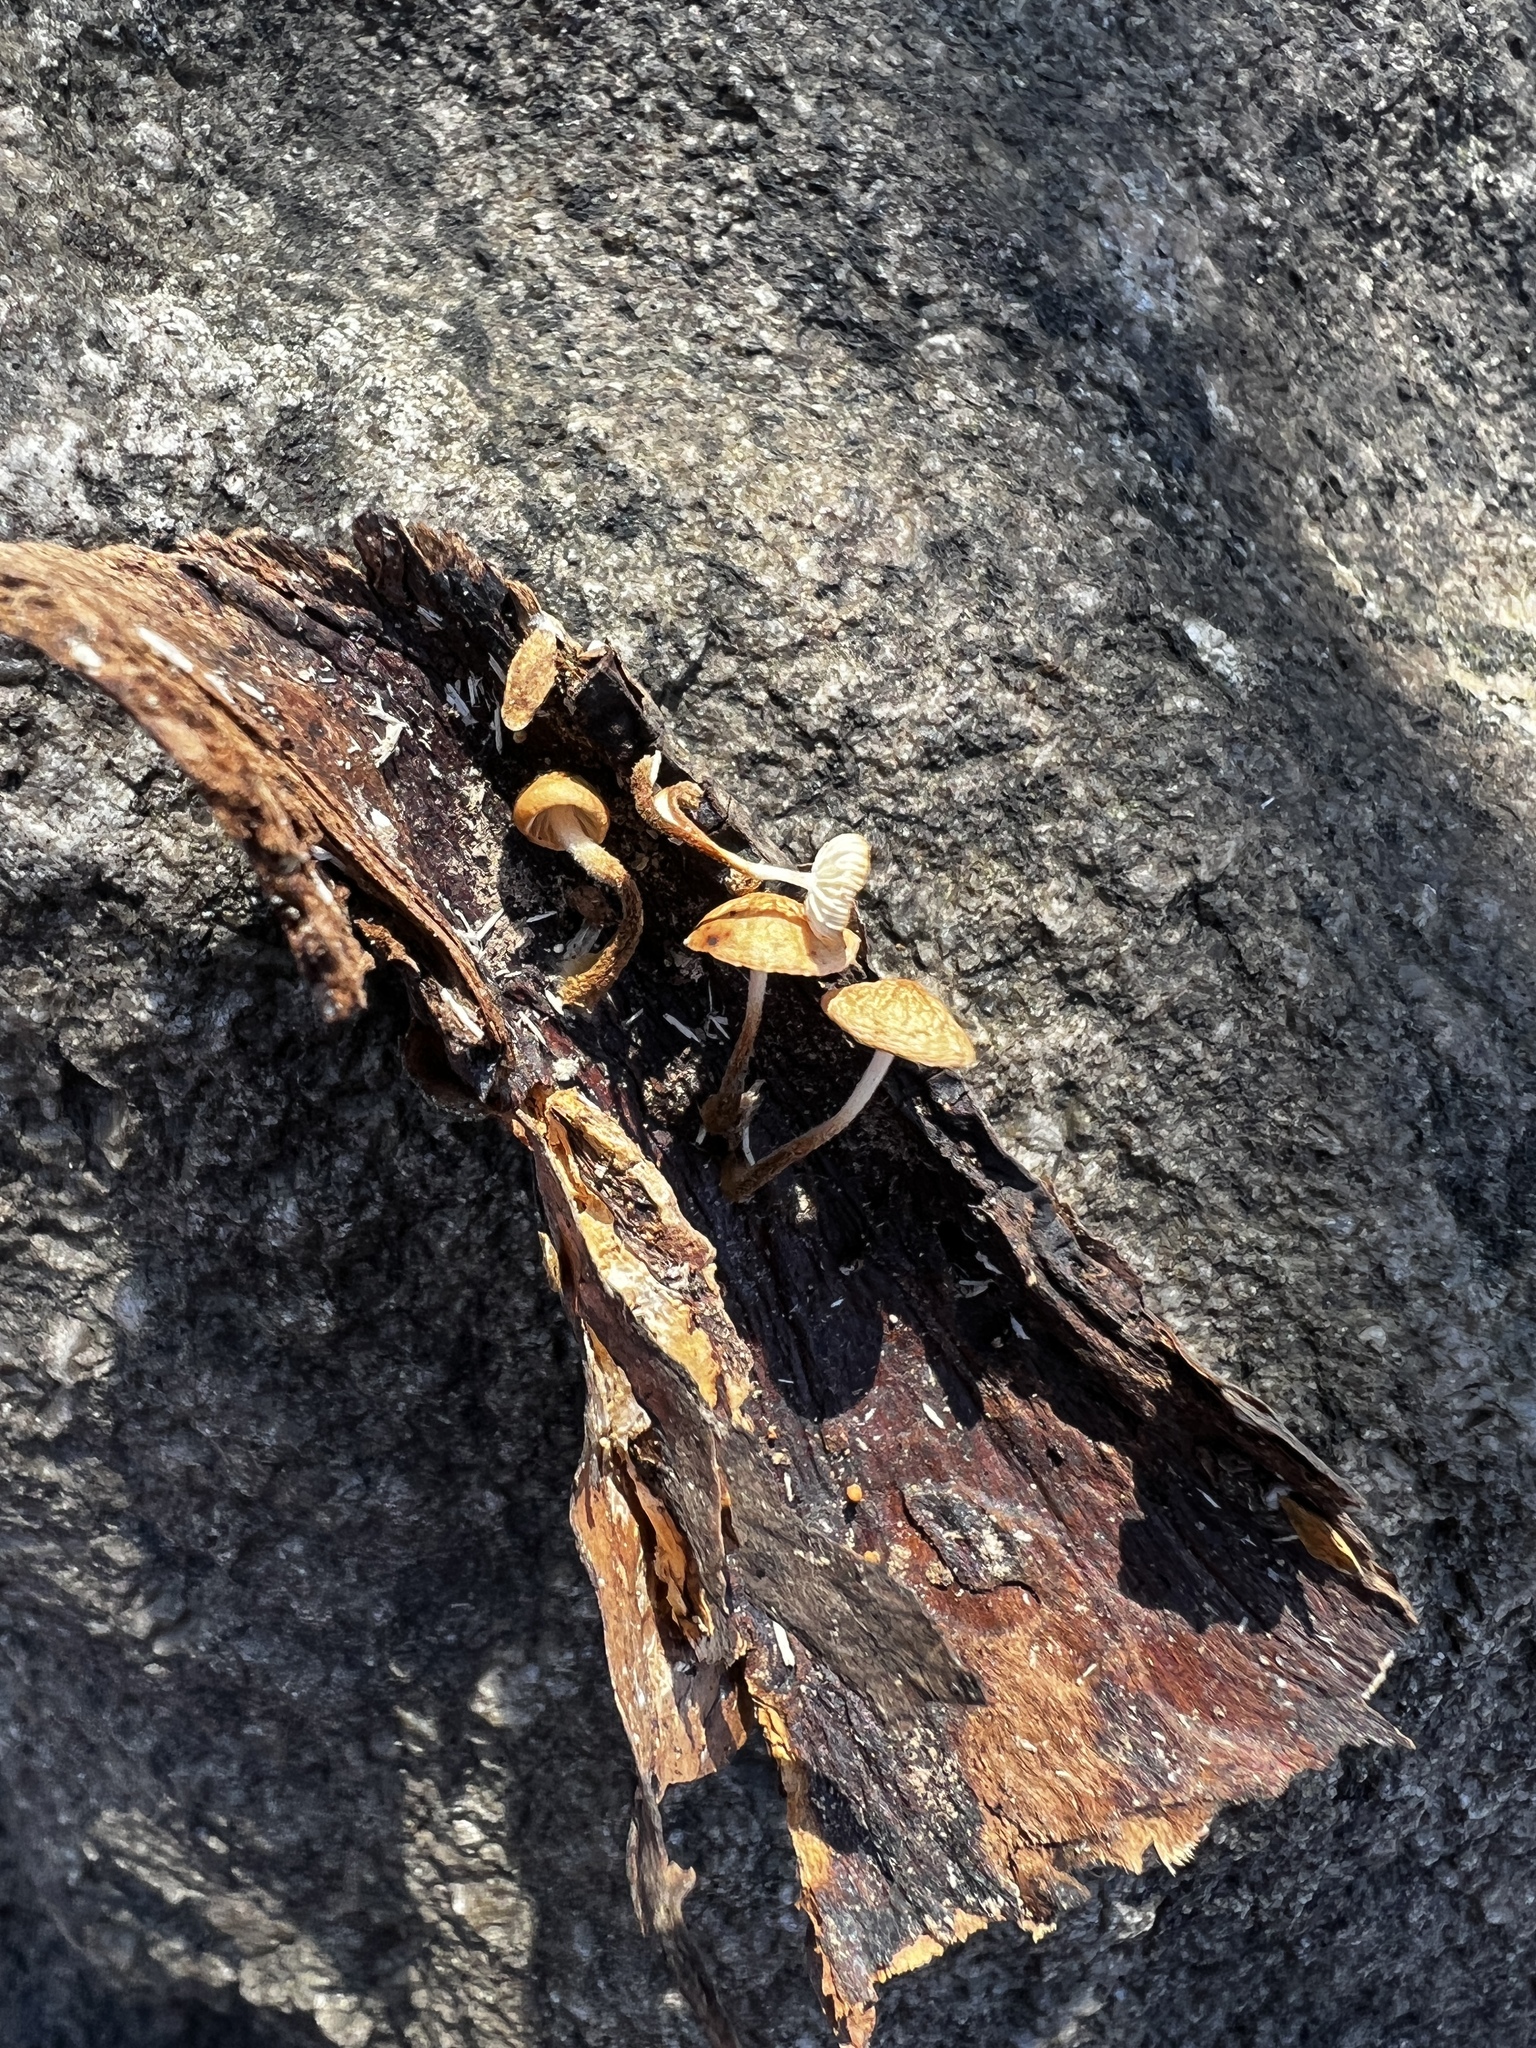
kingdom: Fungi
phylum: Basidiomycota
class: Agaricomycetes
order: Agaricales
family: Physalacriaceae
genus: Rhizomarasmius
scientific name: Rhizomarasmius pyrrhocephalus
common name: Hairy long stem marasmius
